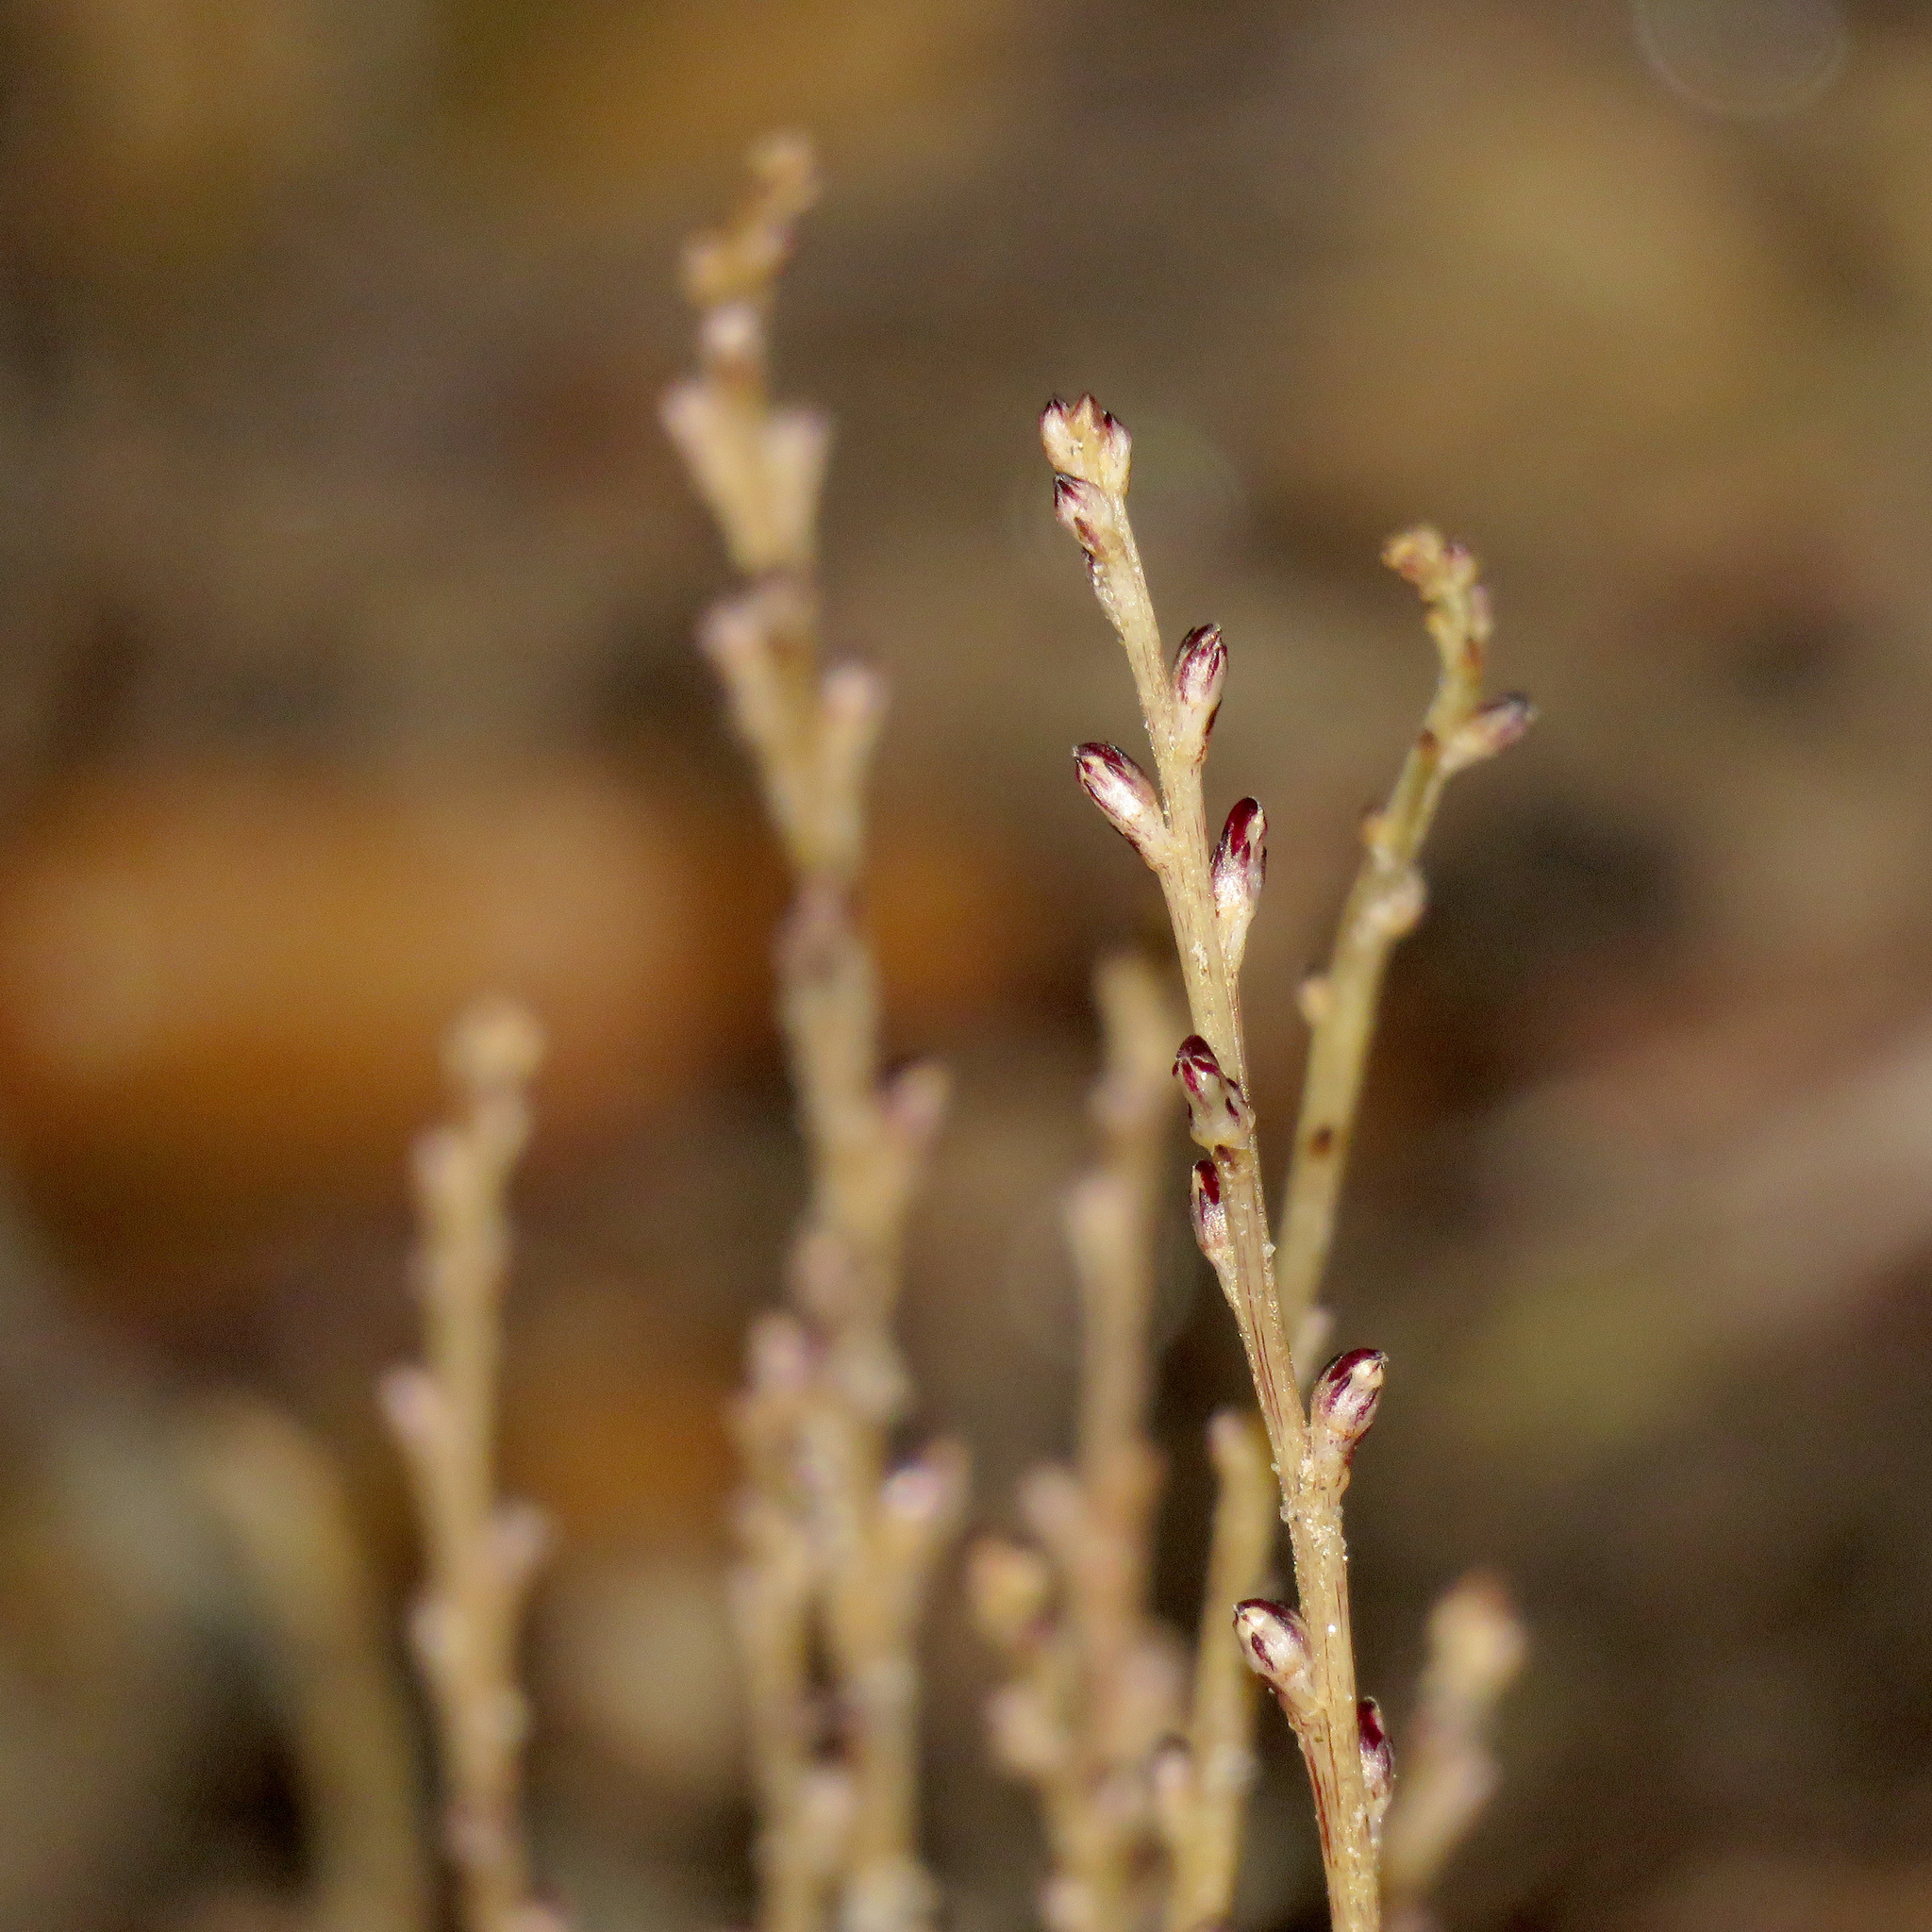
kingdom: Plantae
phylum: Tracheophyta
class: Magnoliopsida
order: Lamiales
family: Orobanchaceae
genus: Epifagus
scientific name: Epifagus virginiana
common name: Beechdrops
